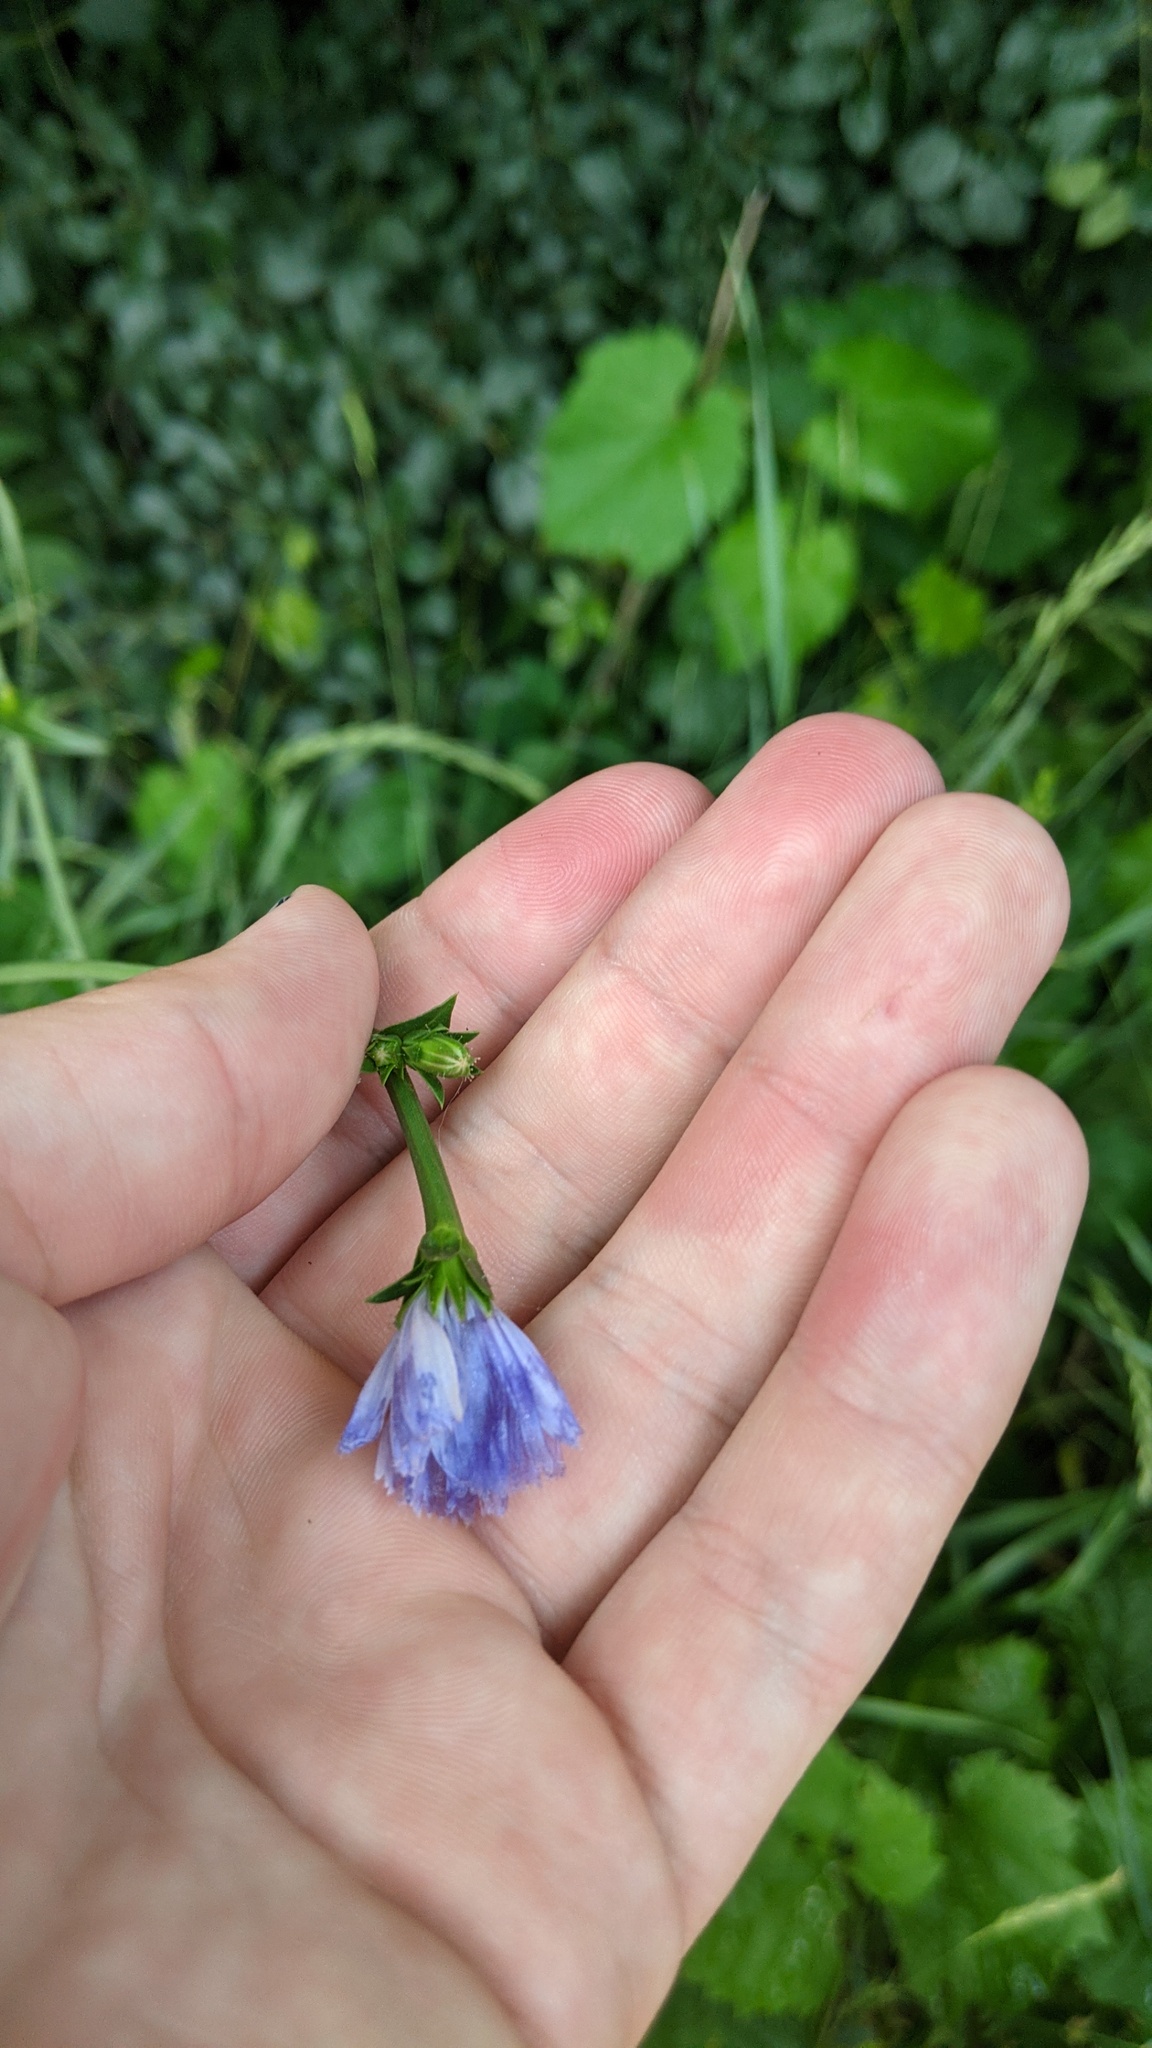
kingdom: Plantae
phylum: Tracheophyta
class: Magnoliopsida
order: Asterales
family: Asteraceae
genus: Cichorium
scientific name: Cichorium intybus
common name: Chicory
